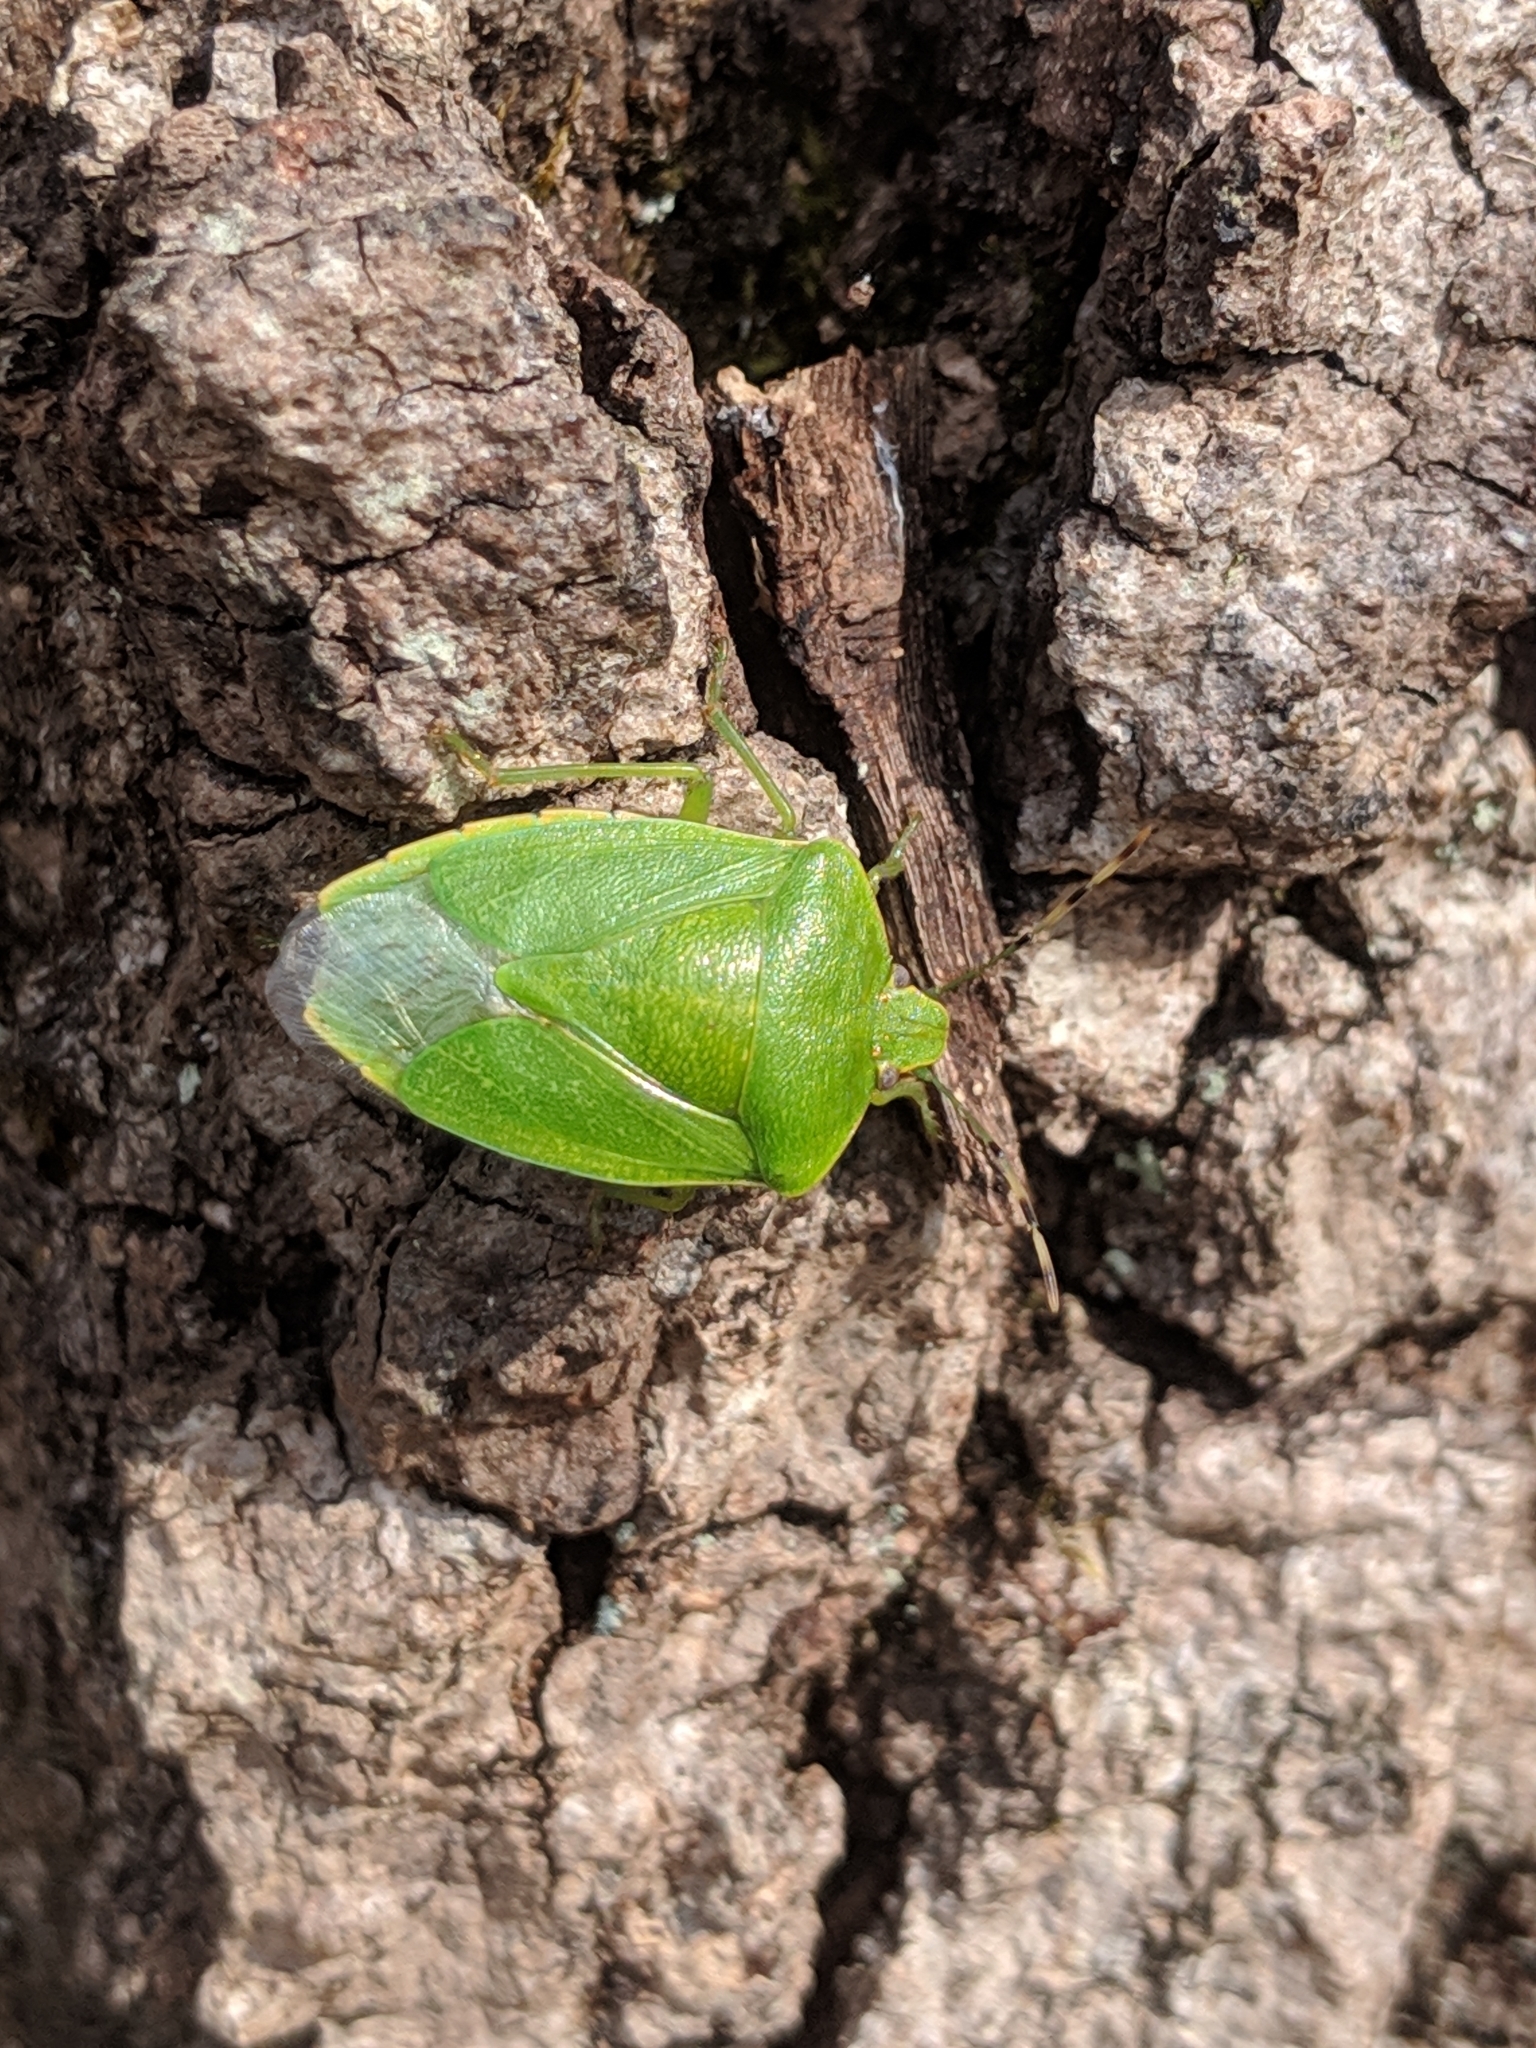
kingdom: Animalia
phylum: Arthropoda
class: Insecta
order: Hemiptera
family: Pentatomidae
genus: Chinavia
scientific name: Chinavia hilaris
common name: Green stink bug
